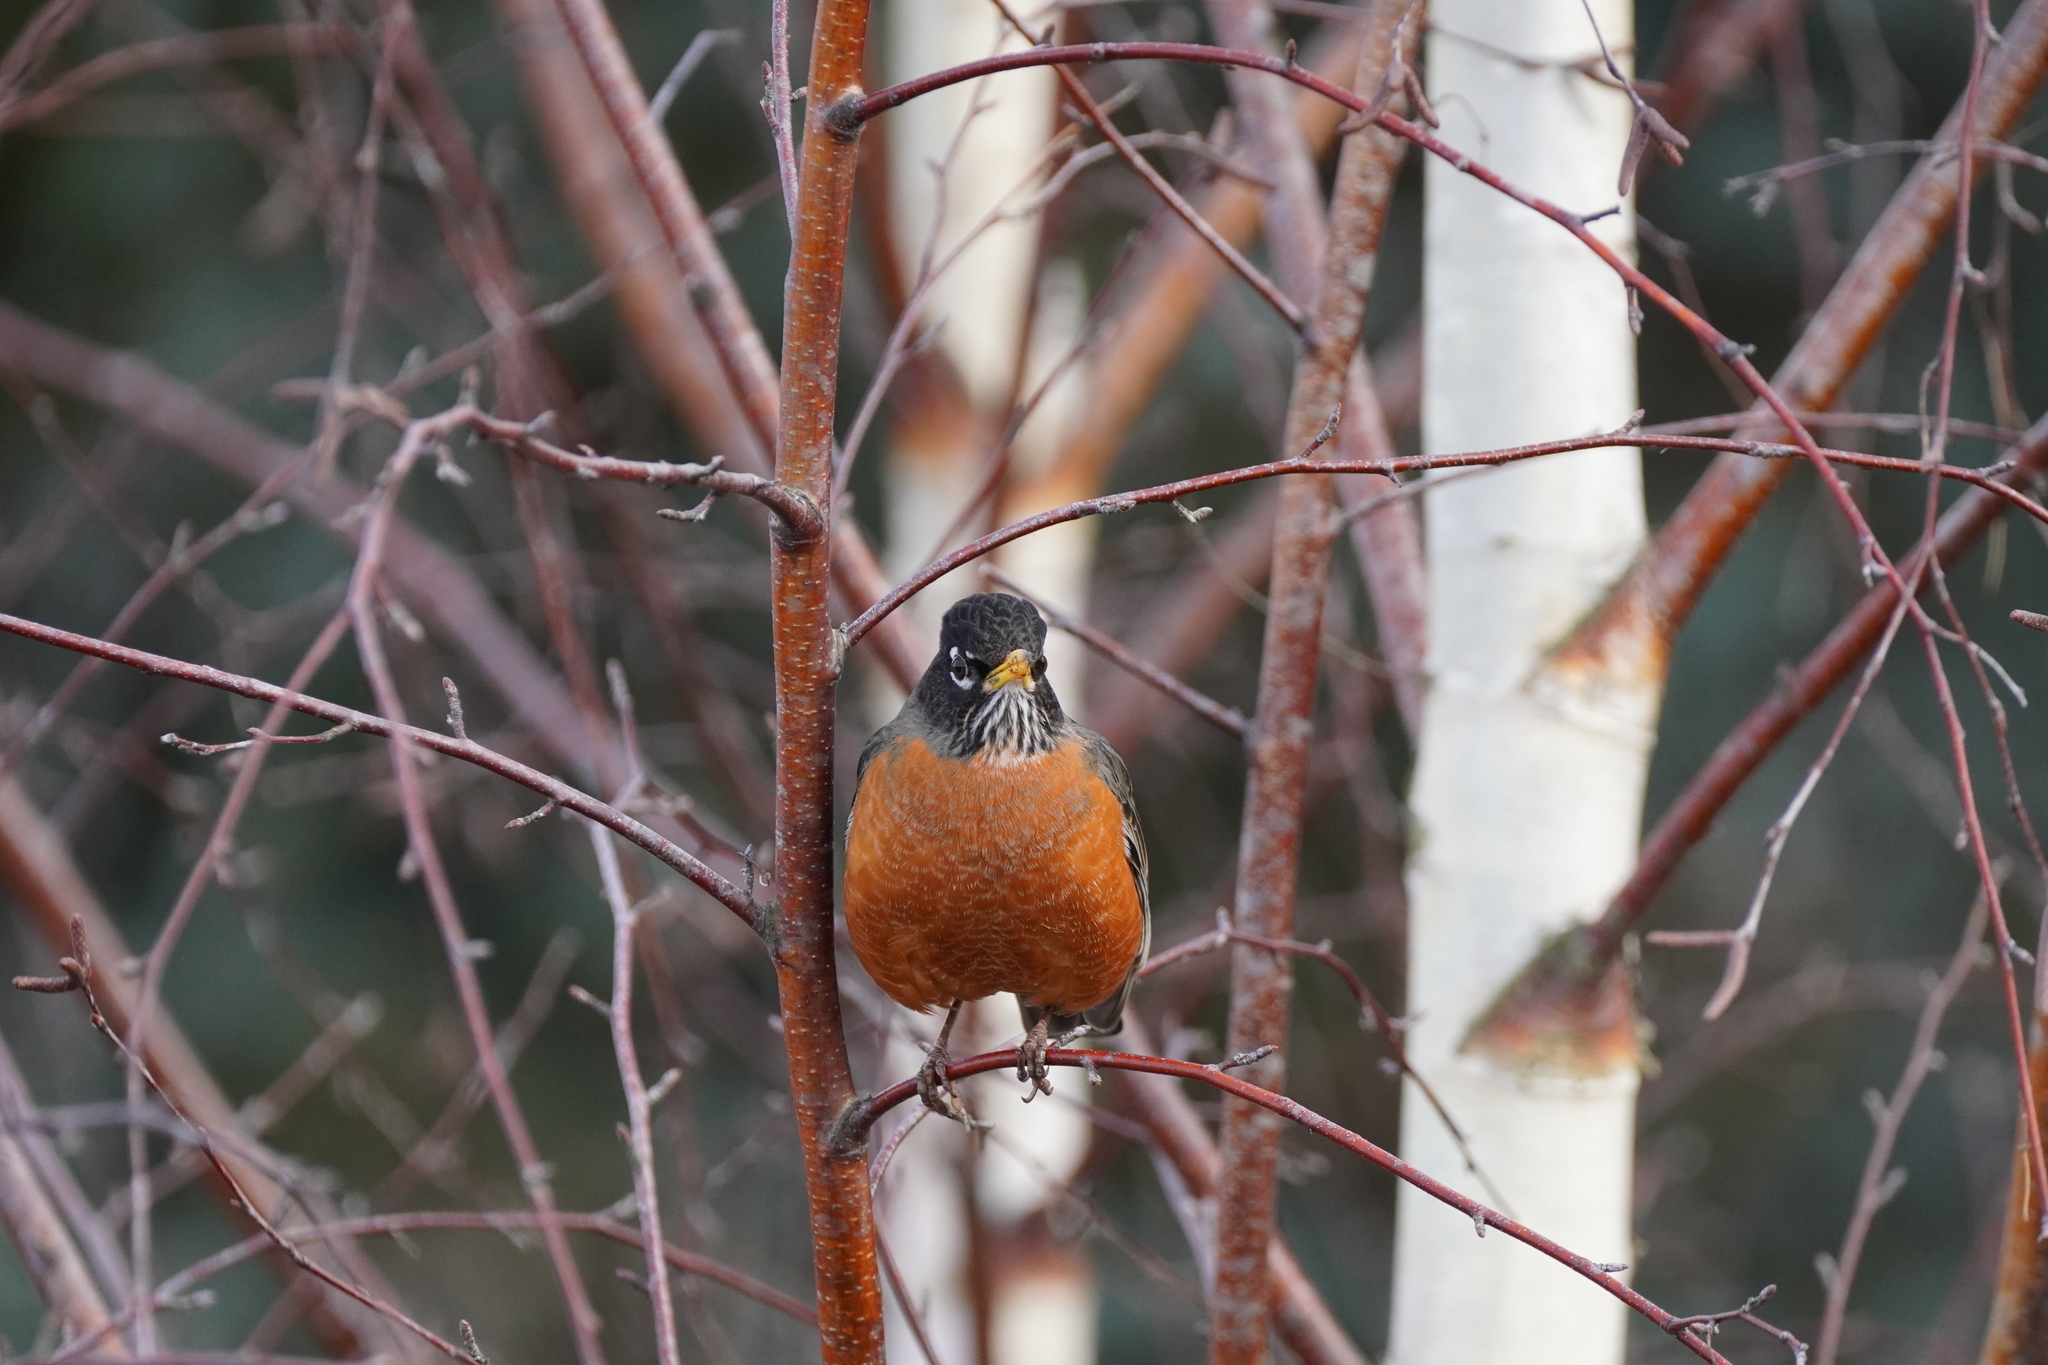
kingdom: Animalia
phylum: Chordata
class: Aves
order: Passeriformes
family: Turdidae
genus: Turdus
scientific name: Turdus migratorius
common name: American robin
